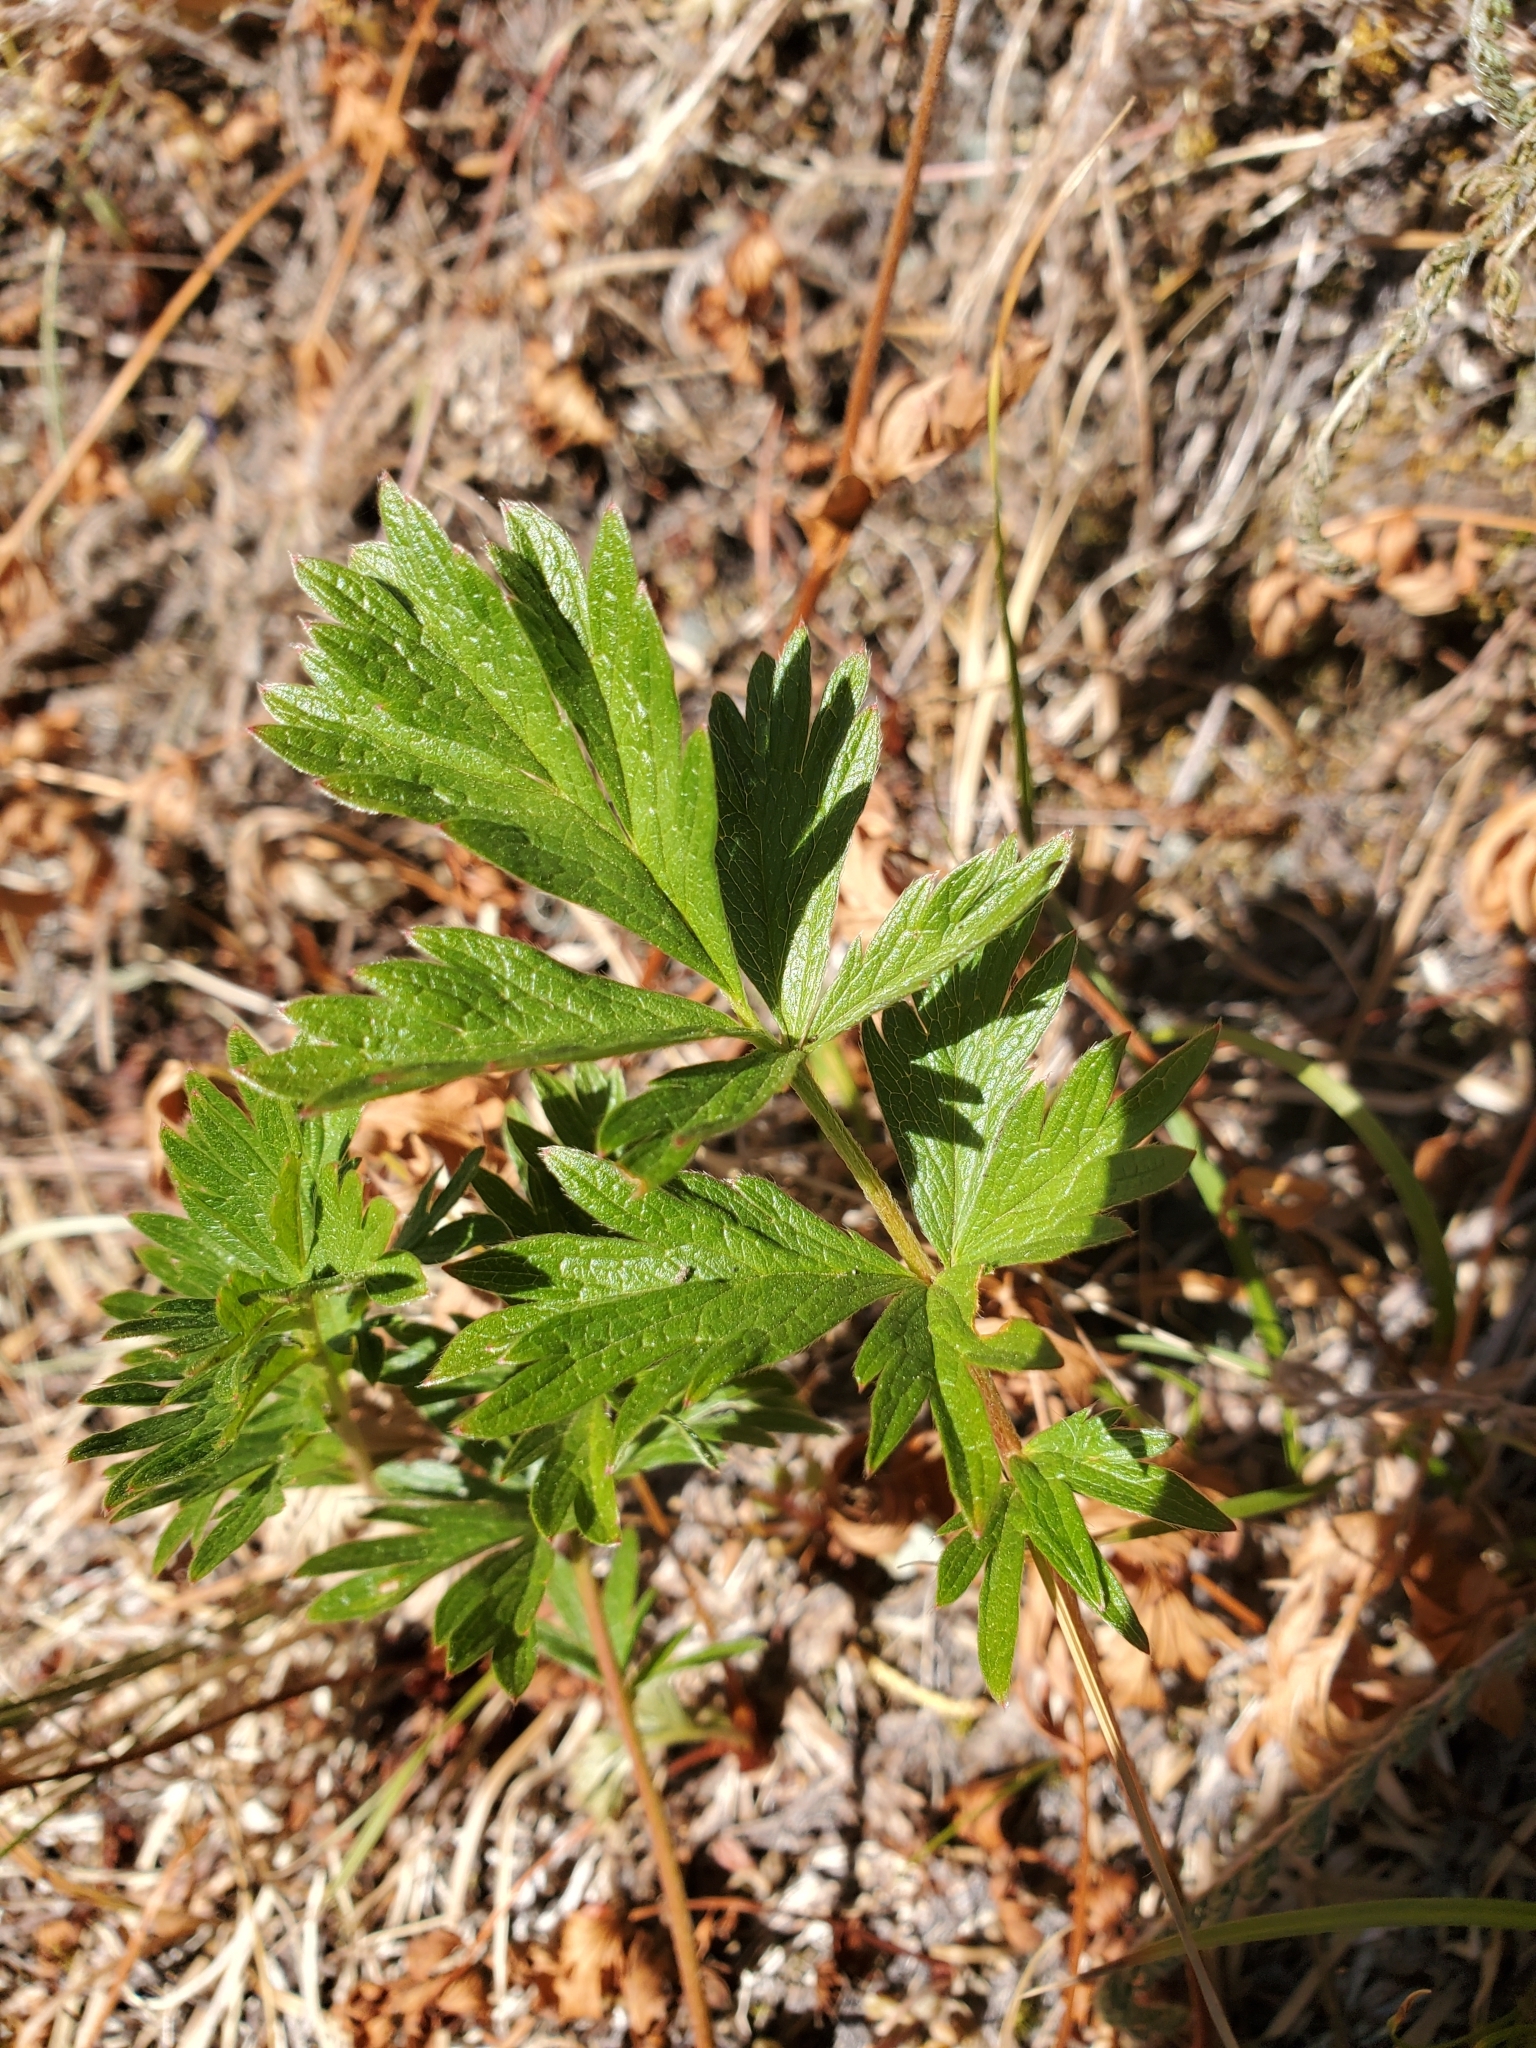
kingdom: Plantae
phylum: Tracheophyta
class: Magnoliopsida
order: Rosales
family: Rosaceae
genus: Potentilla
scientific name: Potentilla drummondii
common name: Drummond's cinquefoil
